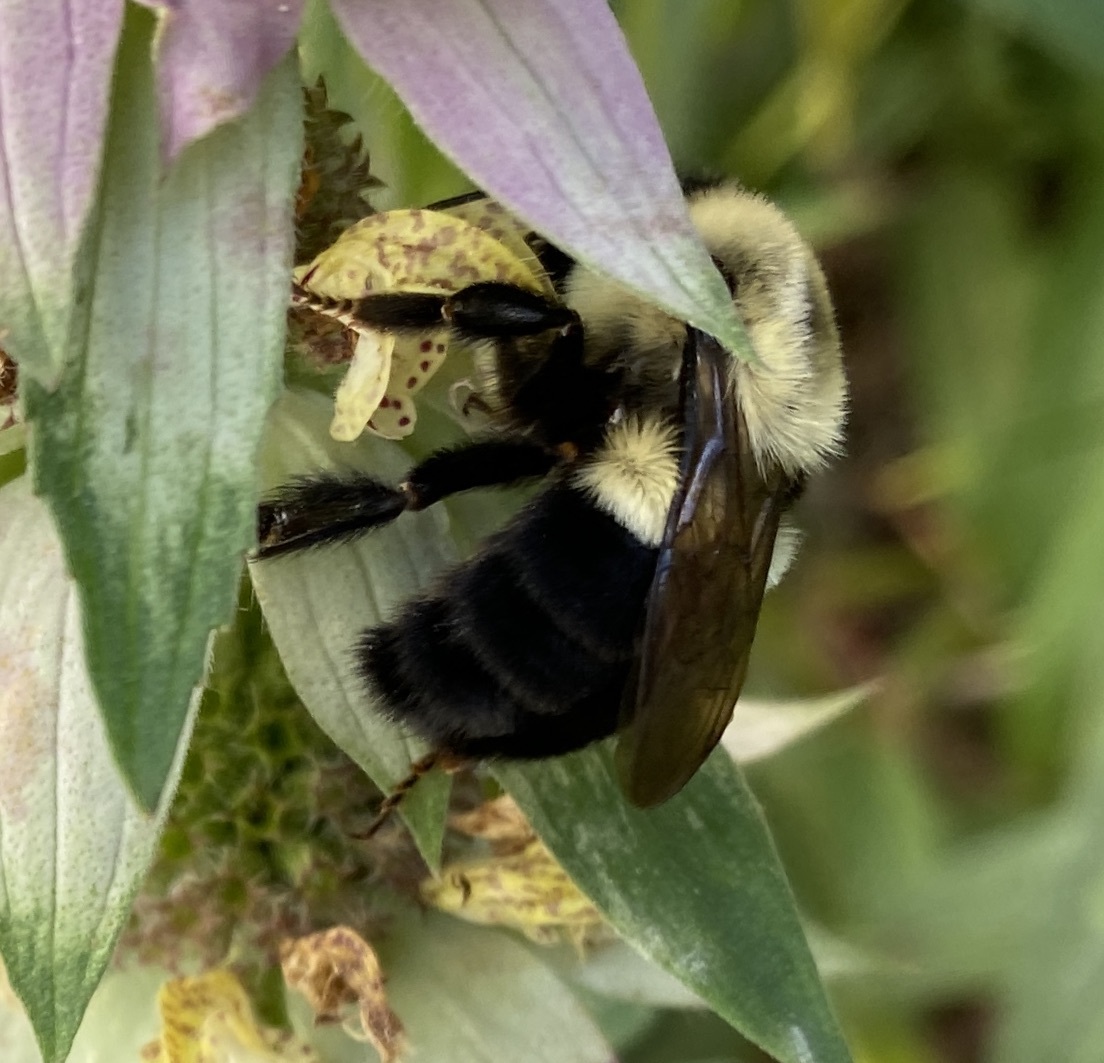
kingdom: Animalia
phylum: Arthropoda
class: Insecta
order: Hymenoptera
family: Apidae
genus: Bombus
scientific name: Bombus impatiens
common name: Common eastern bumble bee
